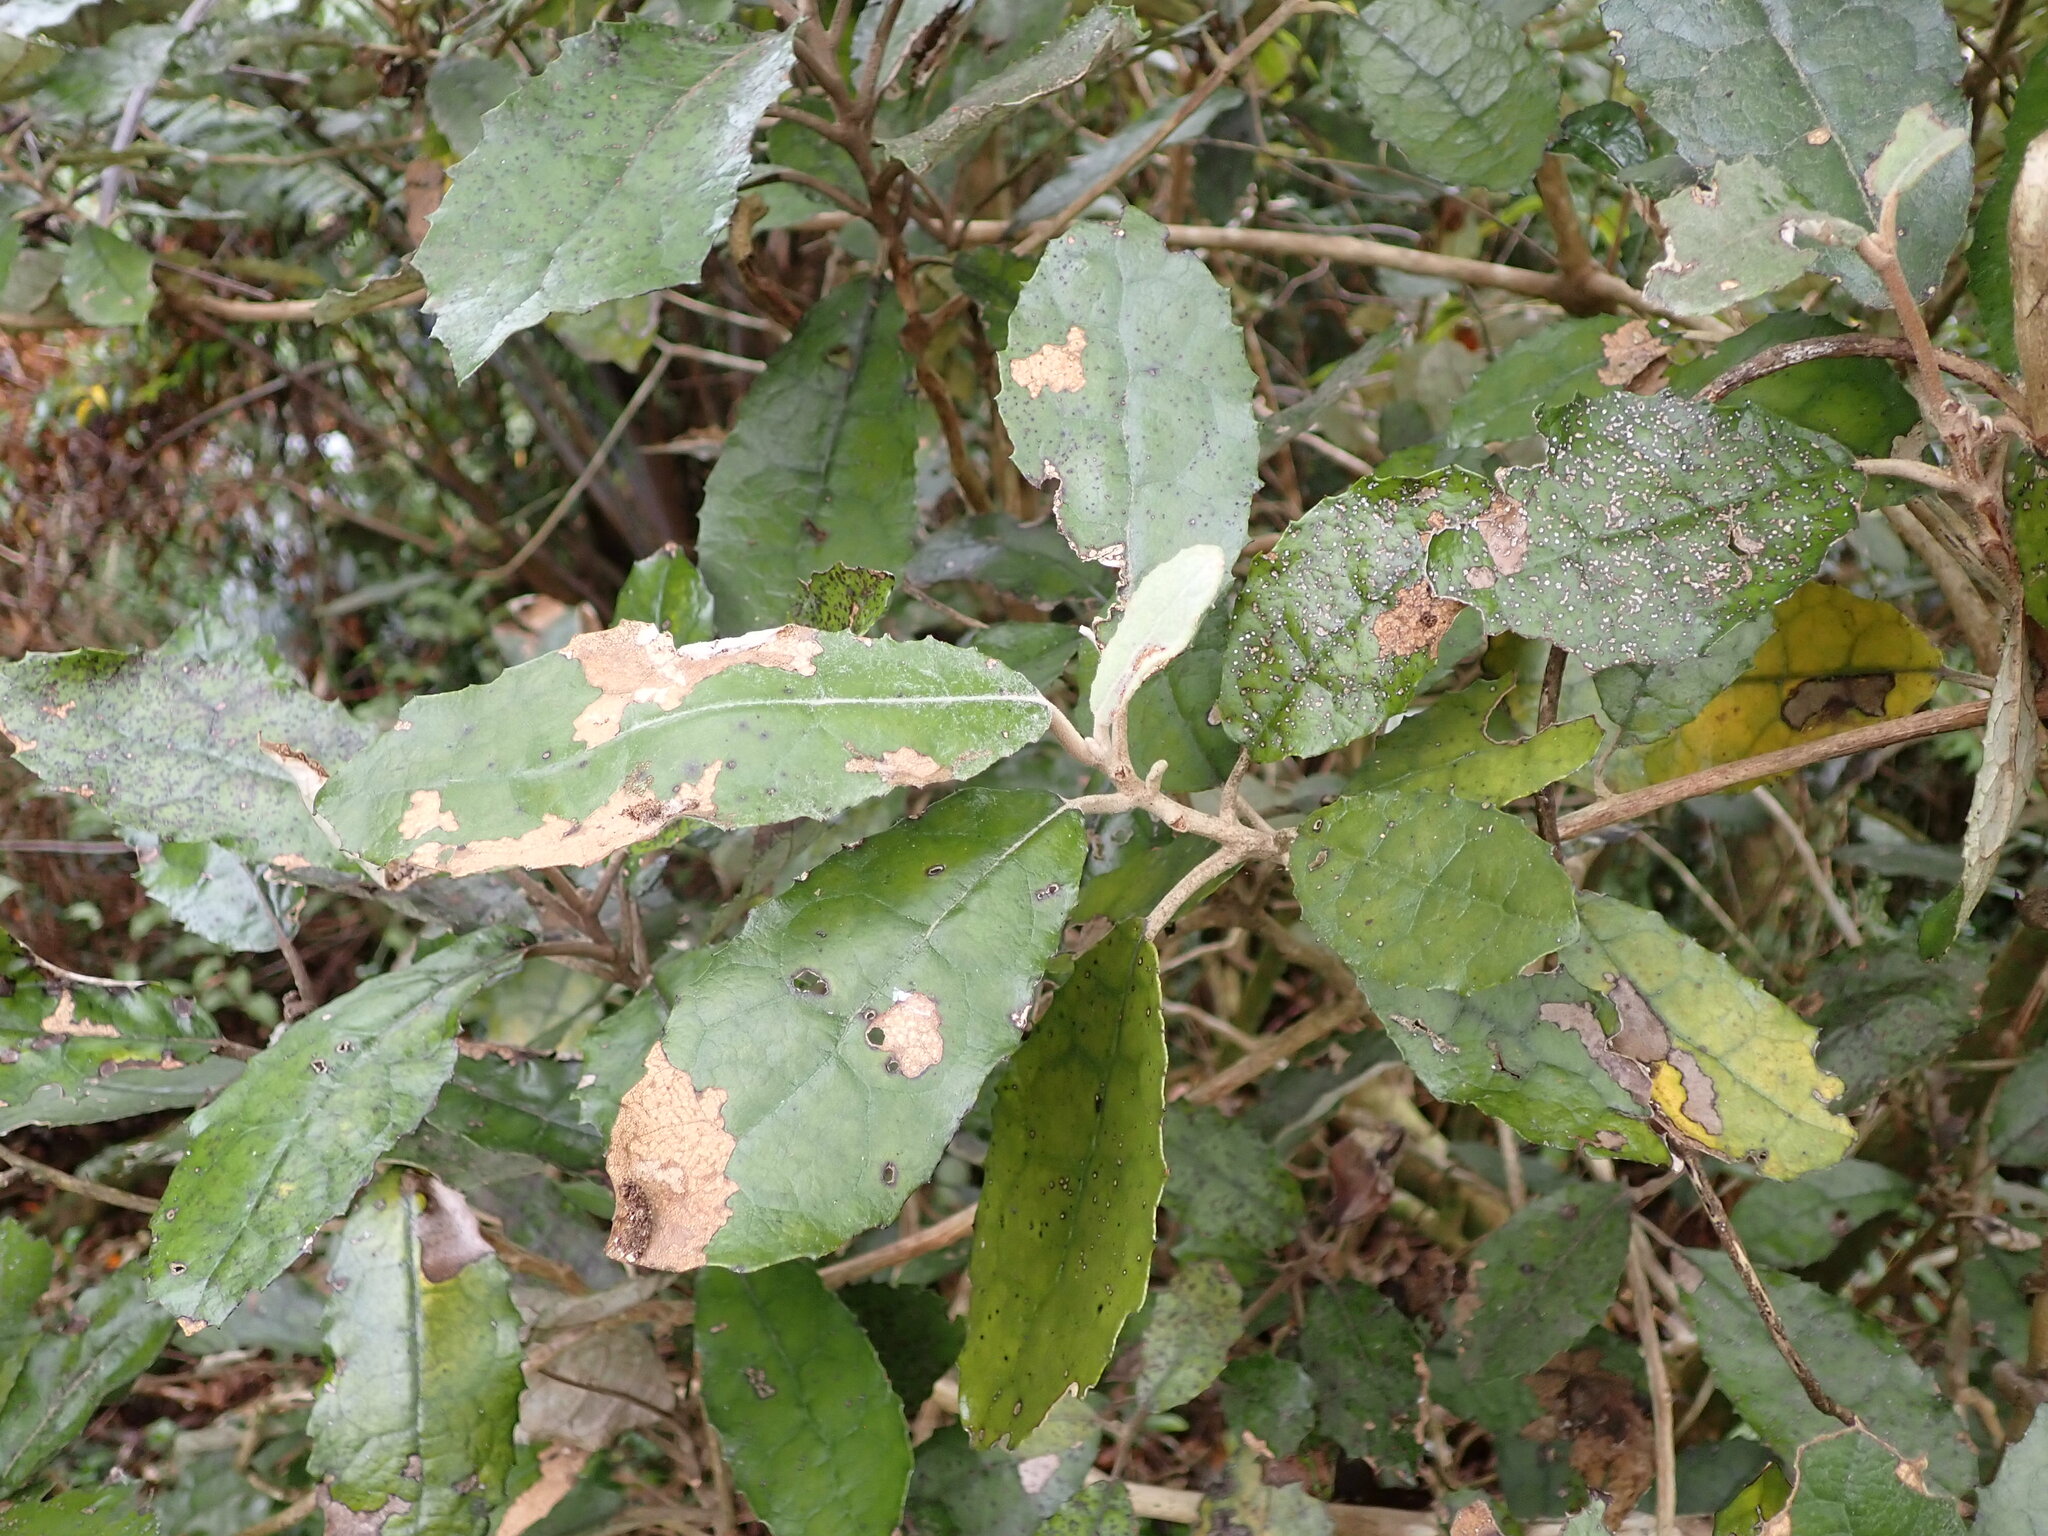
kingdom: Plantae
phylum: Tracheophyta
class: Magnoliopsida
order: Asterales
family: Asteraceae
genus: Olearia
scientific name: Olearia rani
